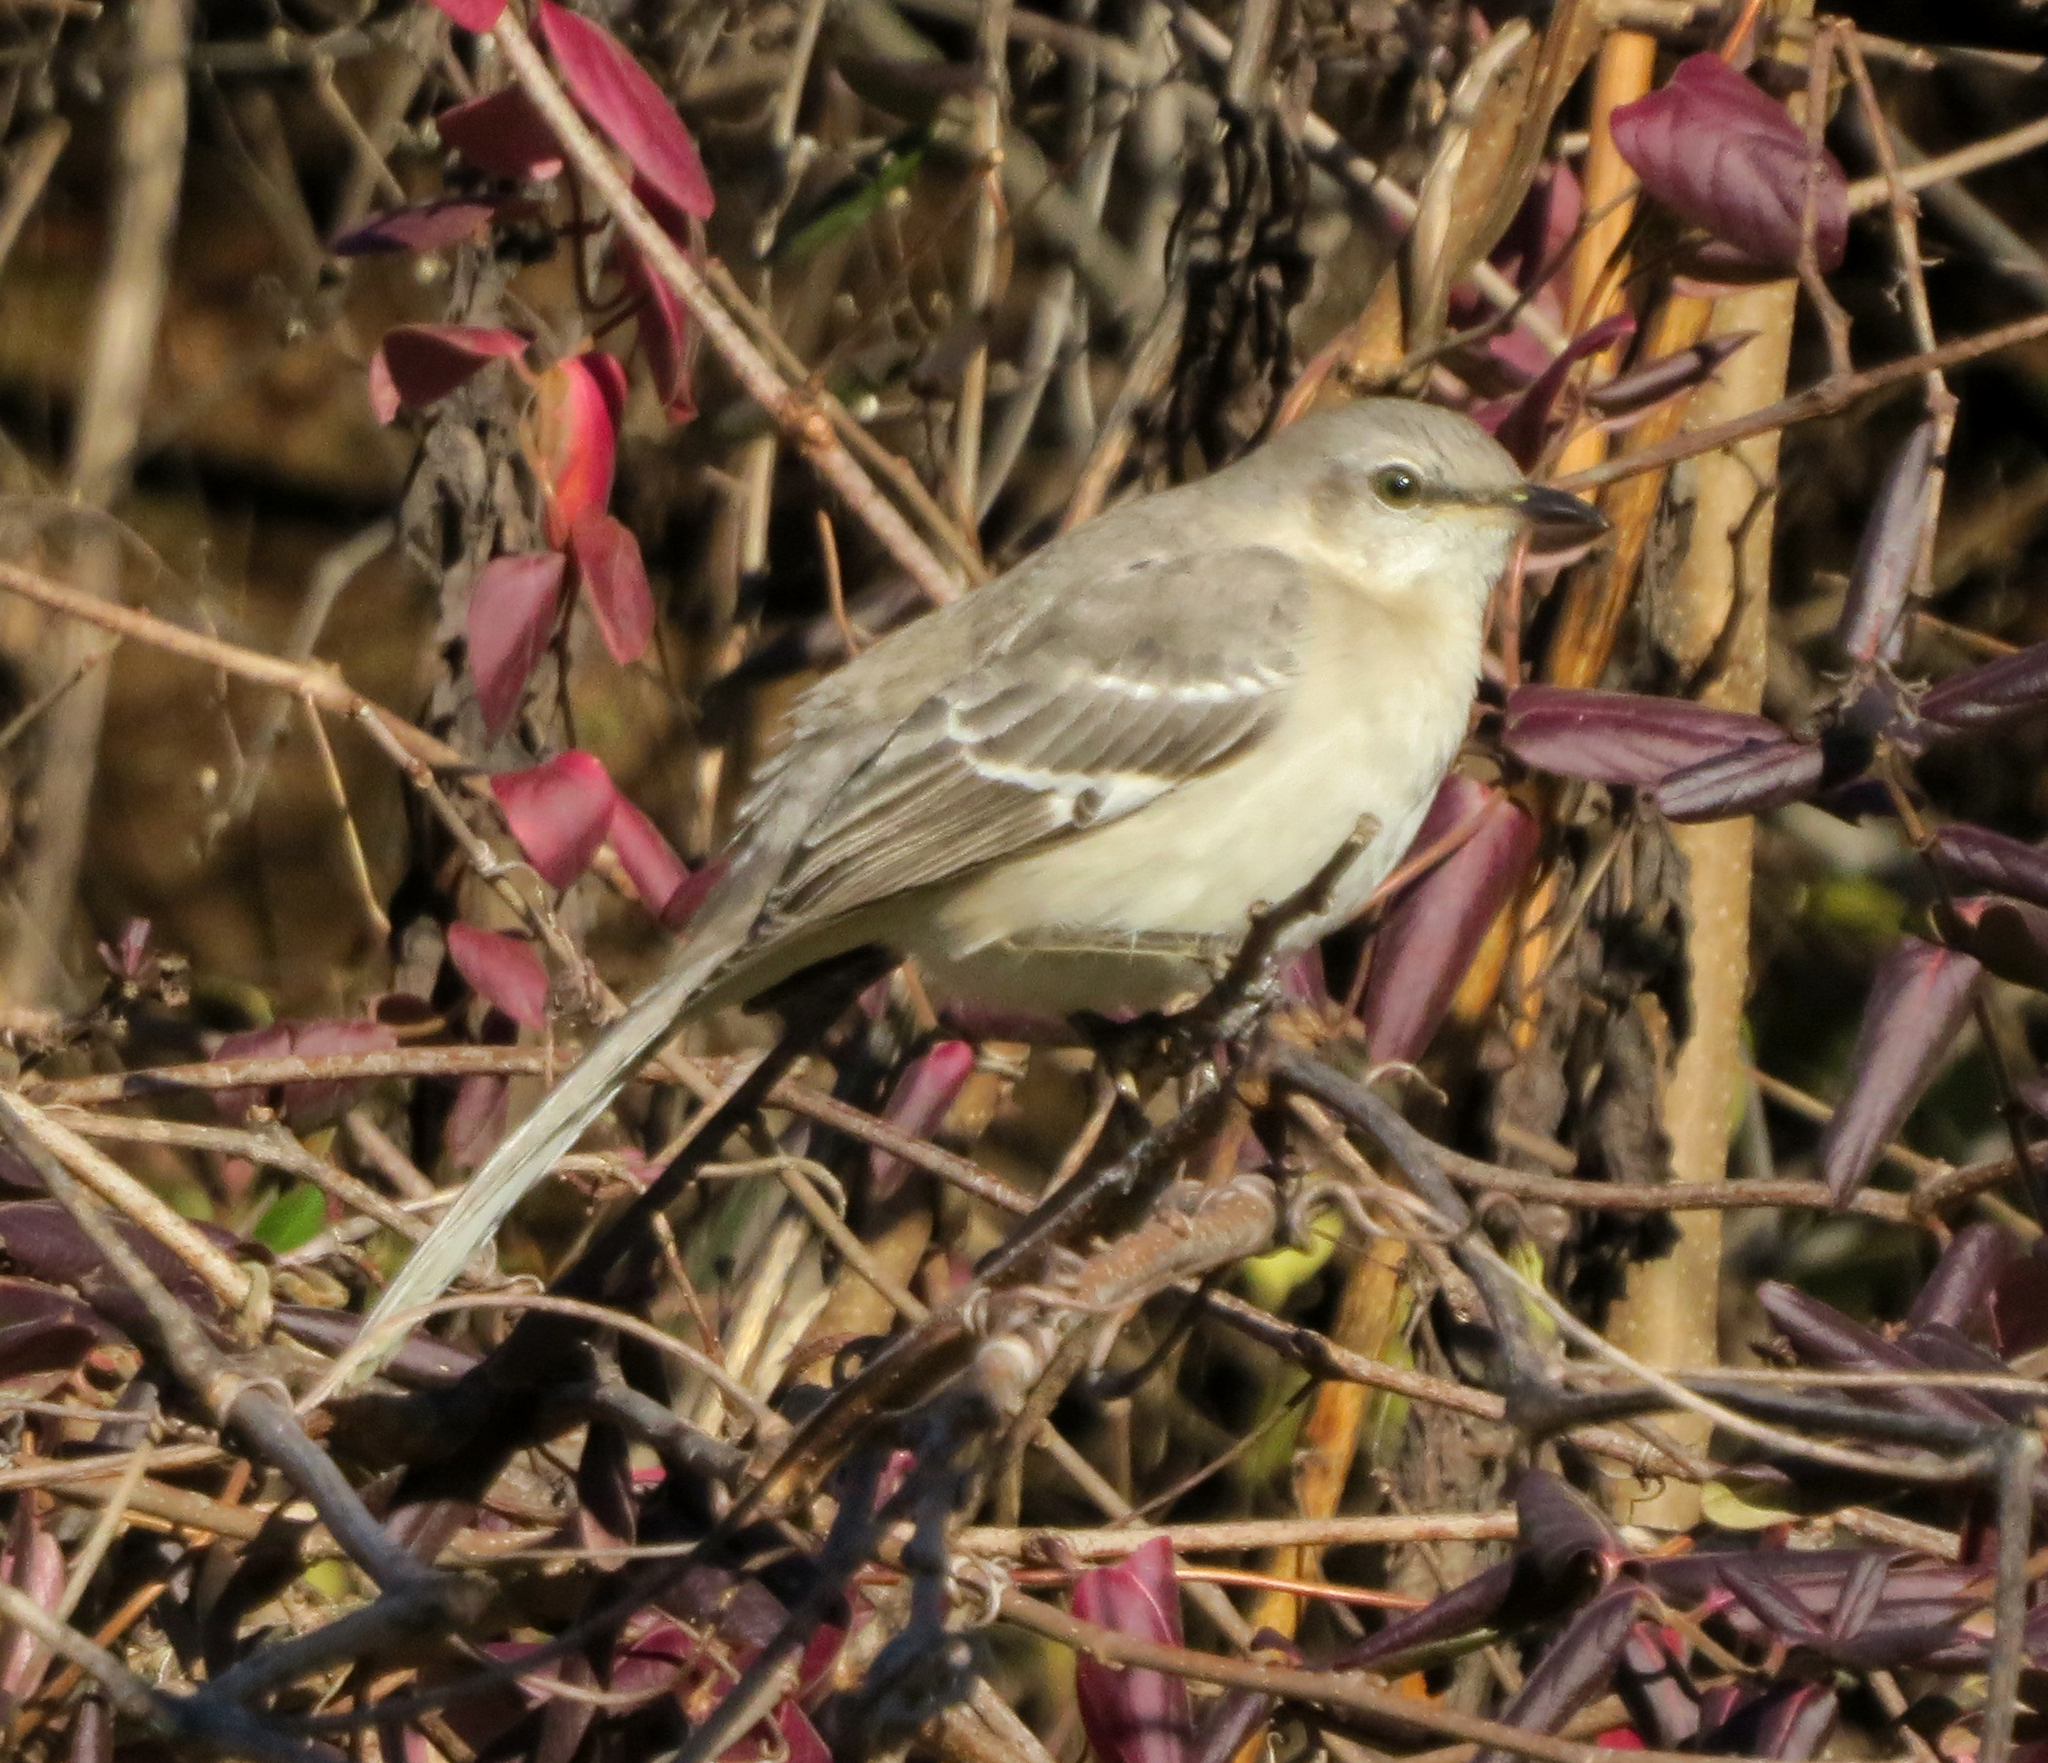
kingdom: Animalia
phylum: Chordata
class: Aves
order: Passeriformes
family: Mimidae
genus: Mimus
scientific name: Mimus polyglottos
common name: Northern mockingbird
